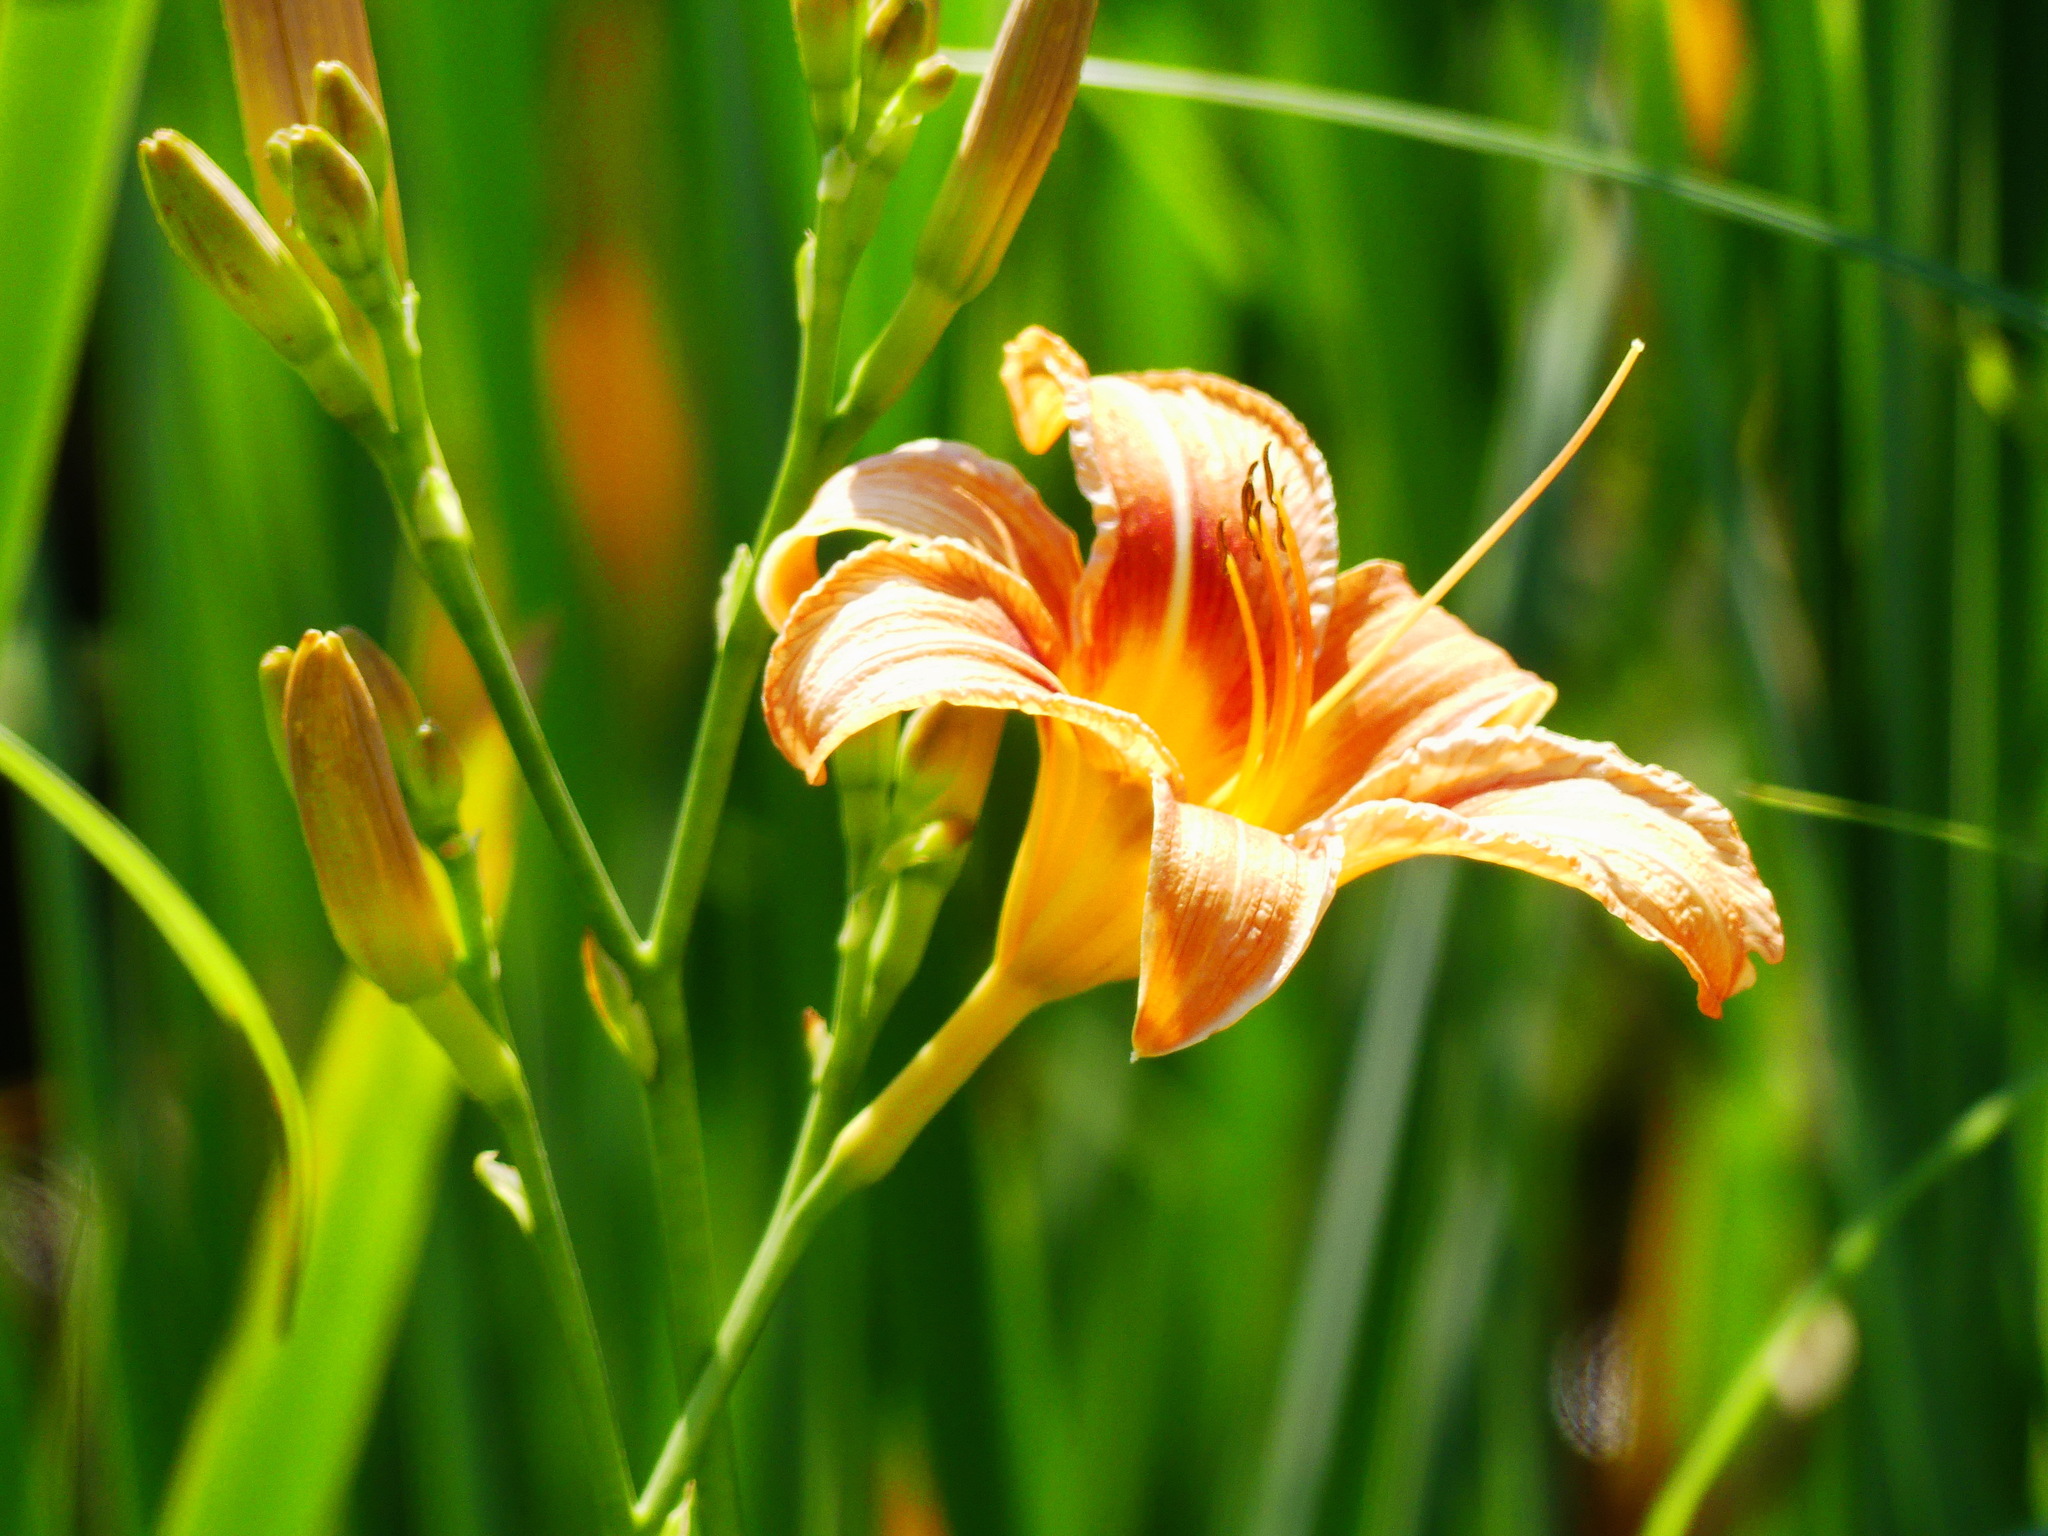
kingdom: Plantae
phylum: Tracheophyta
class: Liliopsida
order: Asparagales
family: Asphodelaceae
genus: Hemerocallis
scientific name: Hemerocallis fulva
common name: Orange day-lily
